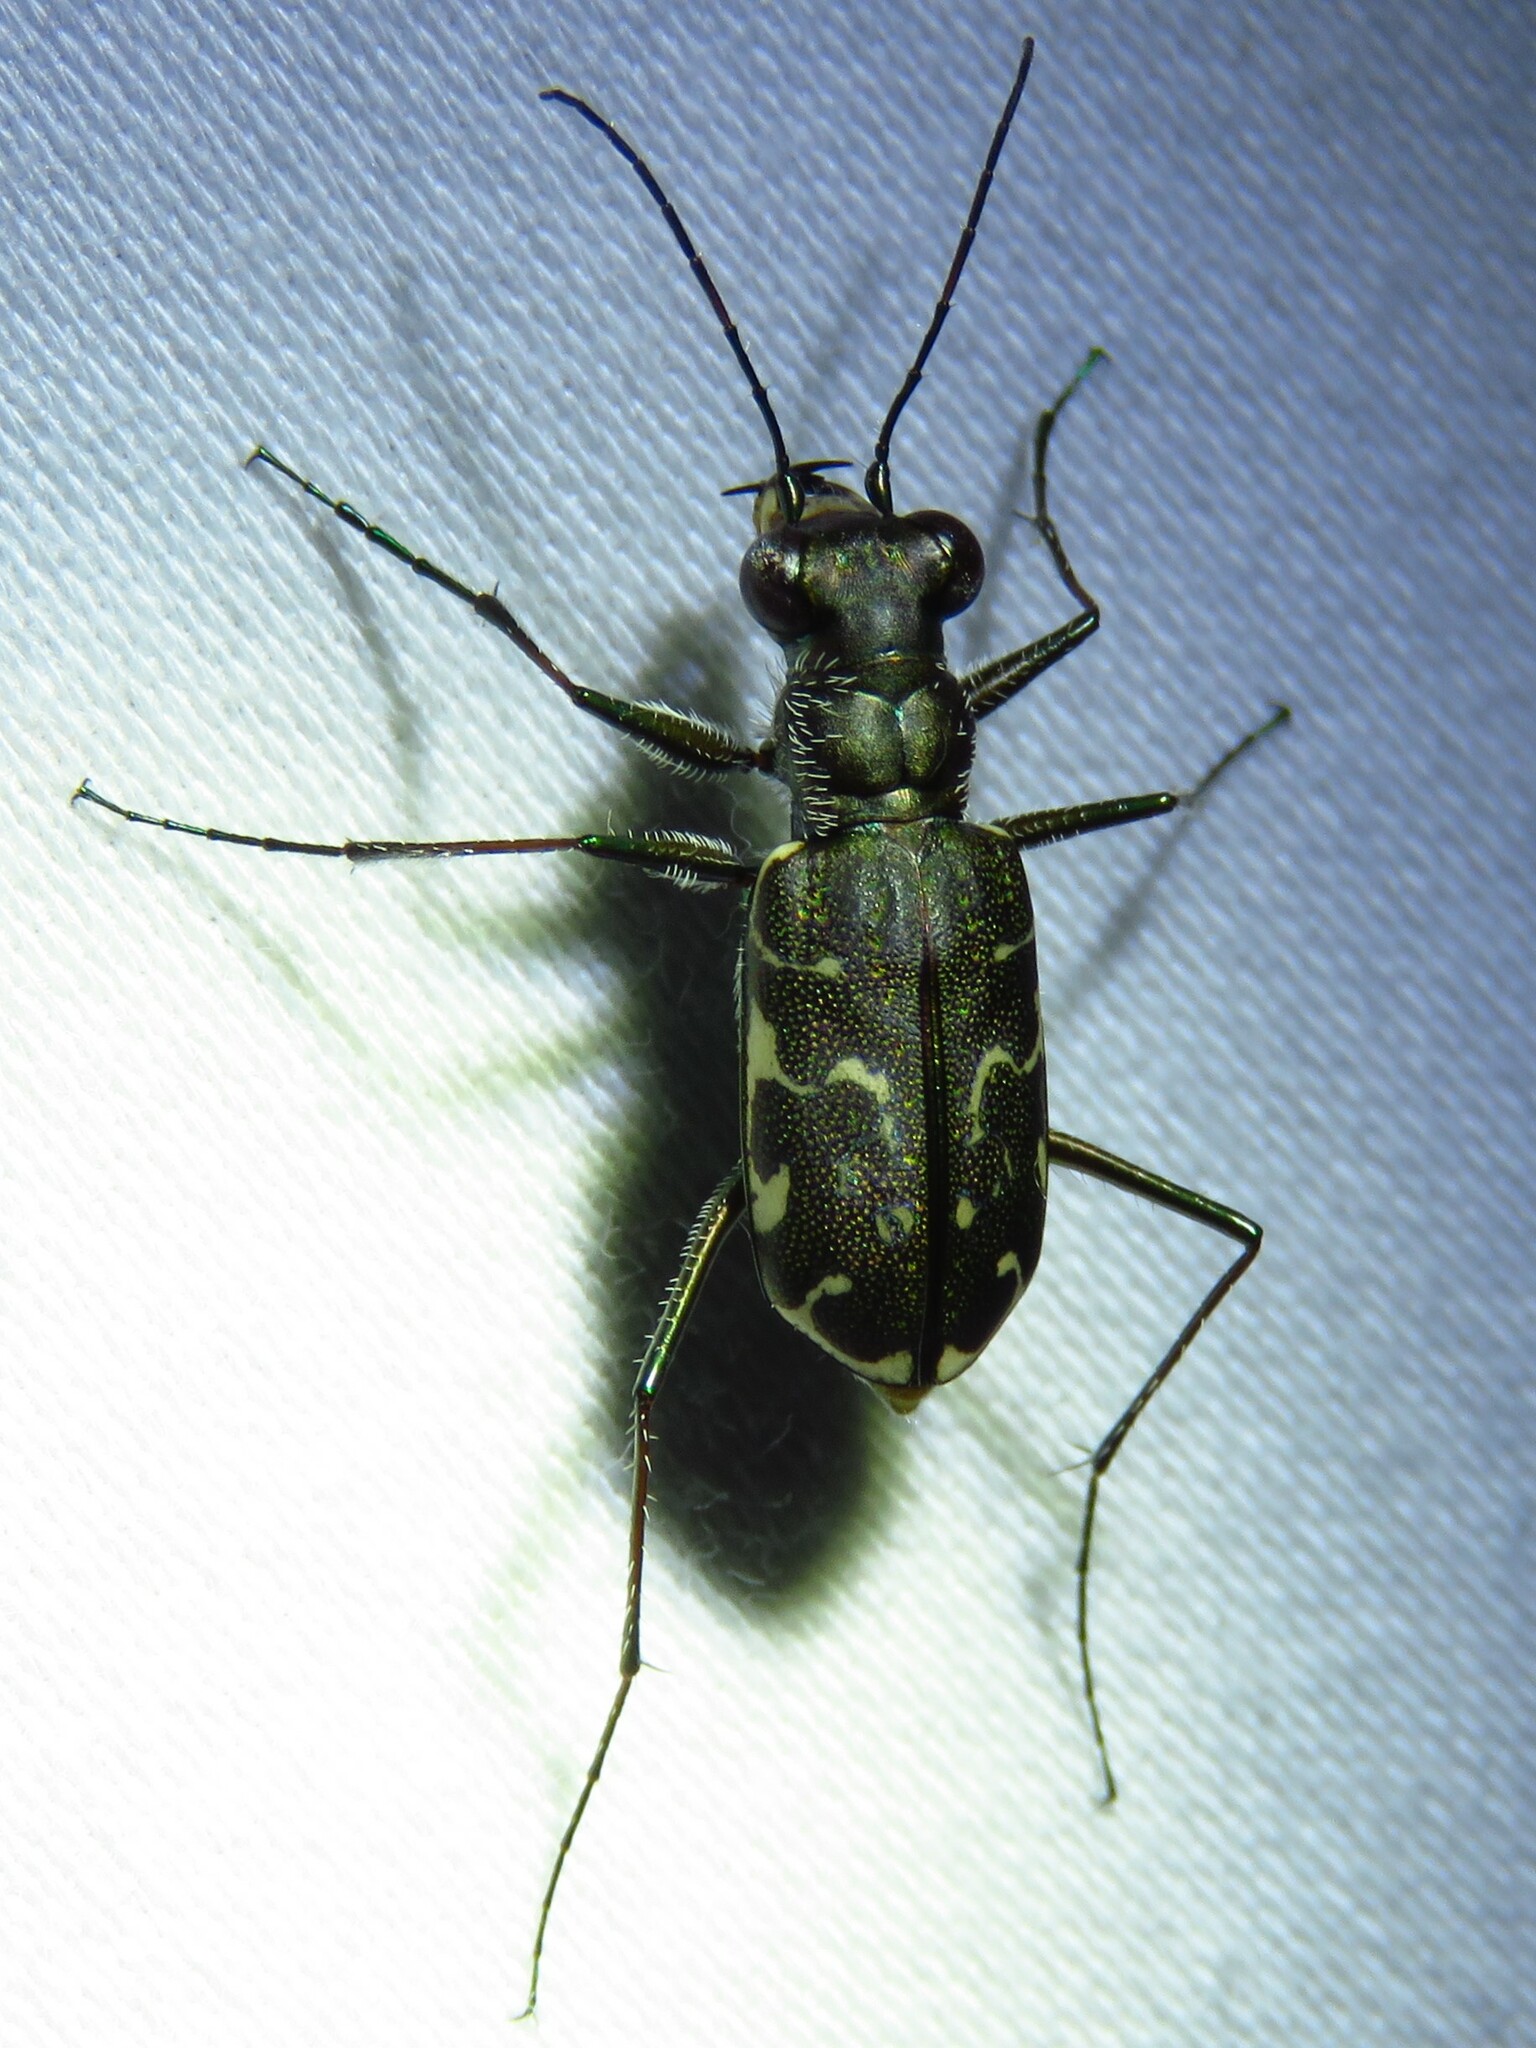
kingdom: Animalia
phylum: Arthropoda
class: Insecta
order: Coleoptera
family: Carabidae
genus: Cicindela
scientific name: Cicindela trifasciata
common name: Mudflat tiger beetle
